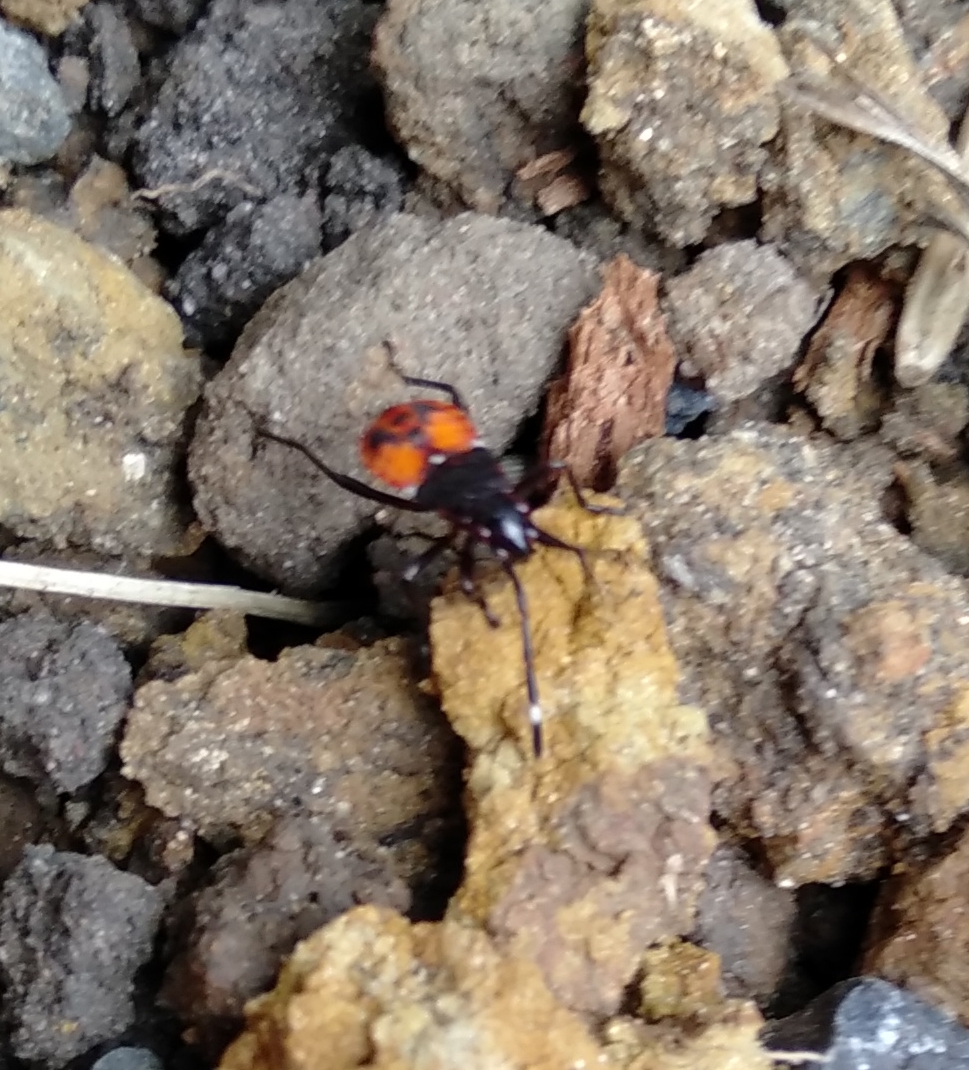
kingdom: Animalia
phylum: Arthropoda
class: Insecta
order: Hemiptera
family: Pyrrhocoridae
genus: Dindymus
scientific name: Dindymus
